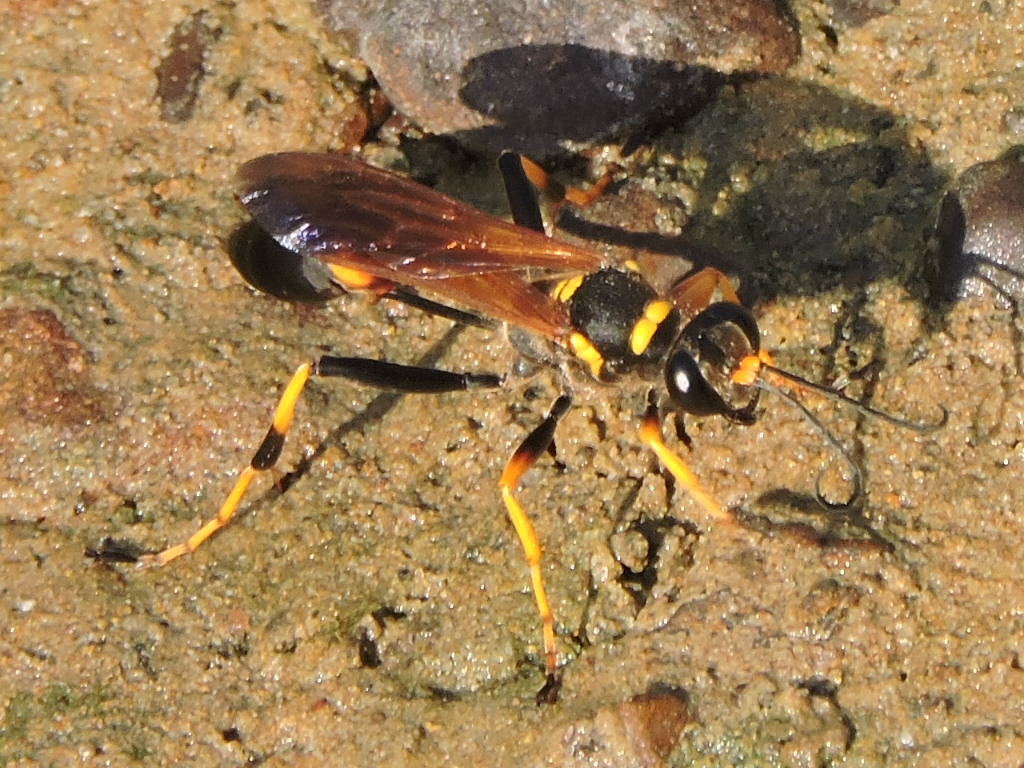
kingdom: Animalia
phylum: Arthropoda
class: Insecta
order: Hymenoptera
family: Sphecidae
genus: Sceliphron
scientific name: Sceliphron caementarium
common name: Mud dauber
